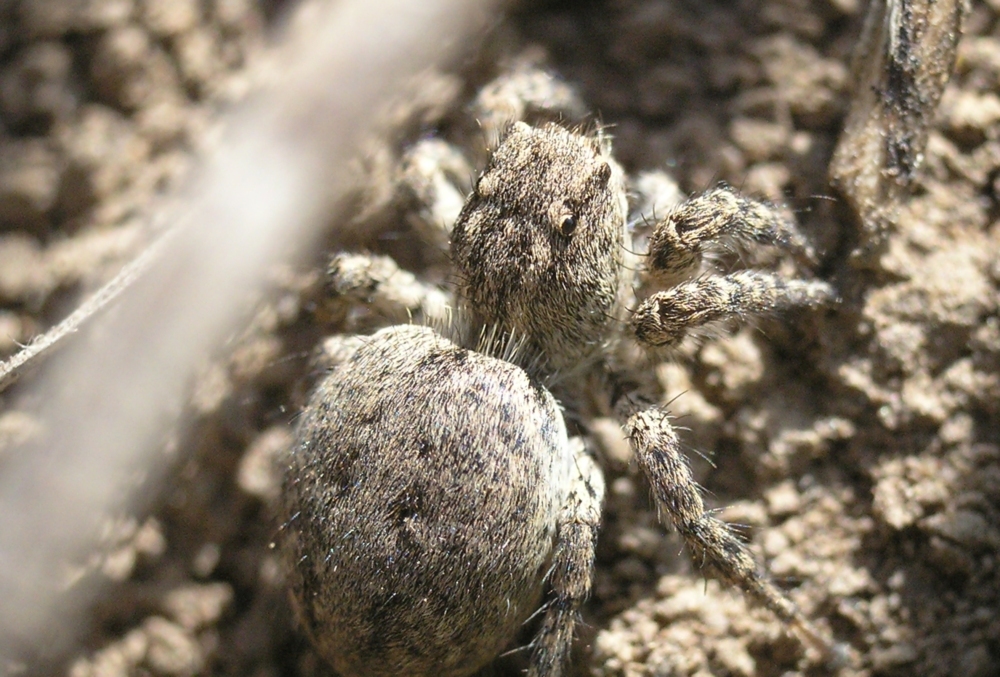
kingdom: Animalia
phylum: Arthropoda
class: Arachnida
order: Araneae
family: Salticidae
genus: Aelurillus
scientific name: Aelurillus v-insignitus
